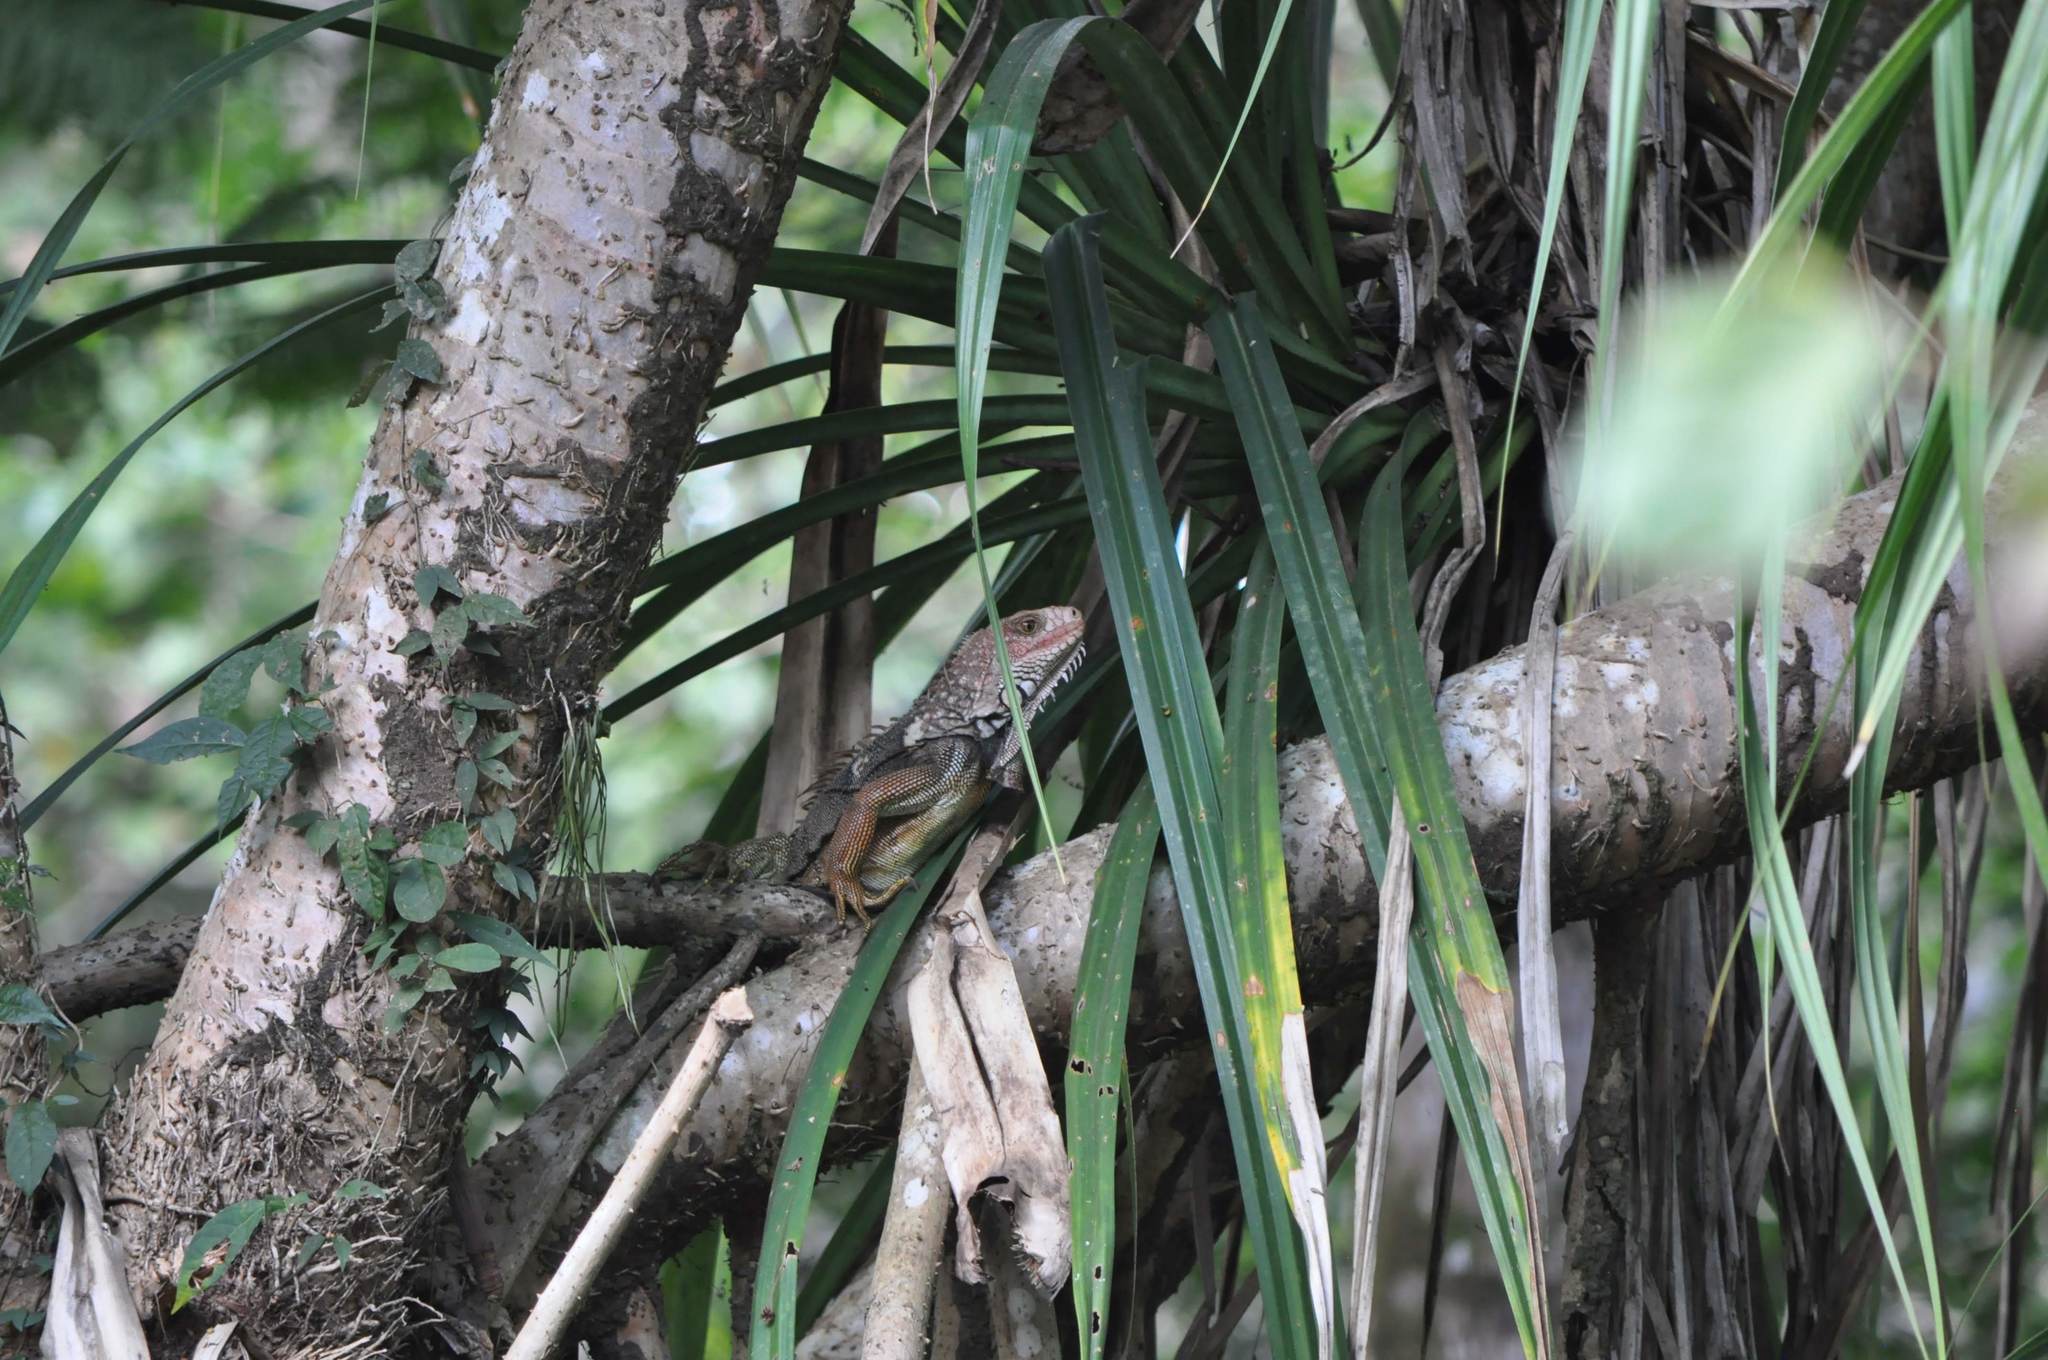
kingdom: Animalia
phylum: Chordata
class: Squamata
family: Iguanidae
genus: Iguana
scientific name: Iguana iguana
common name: Green iguana
